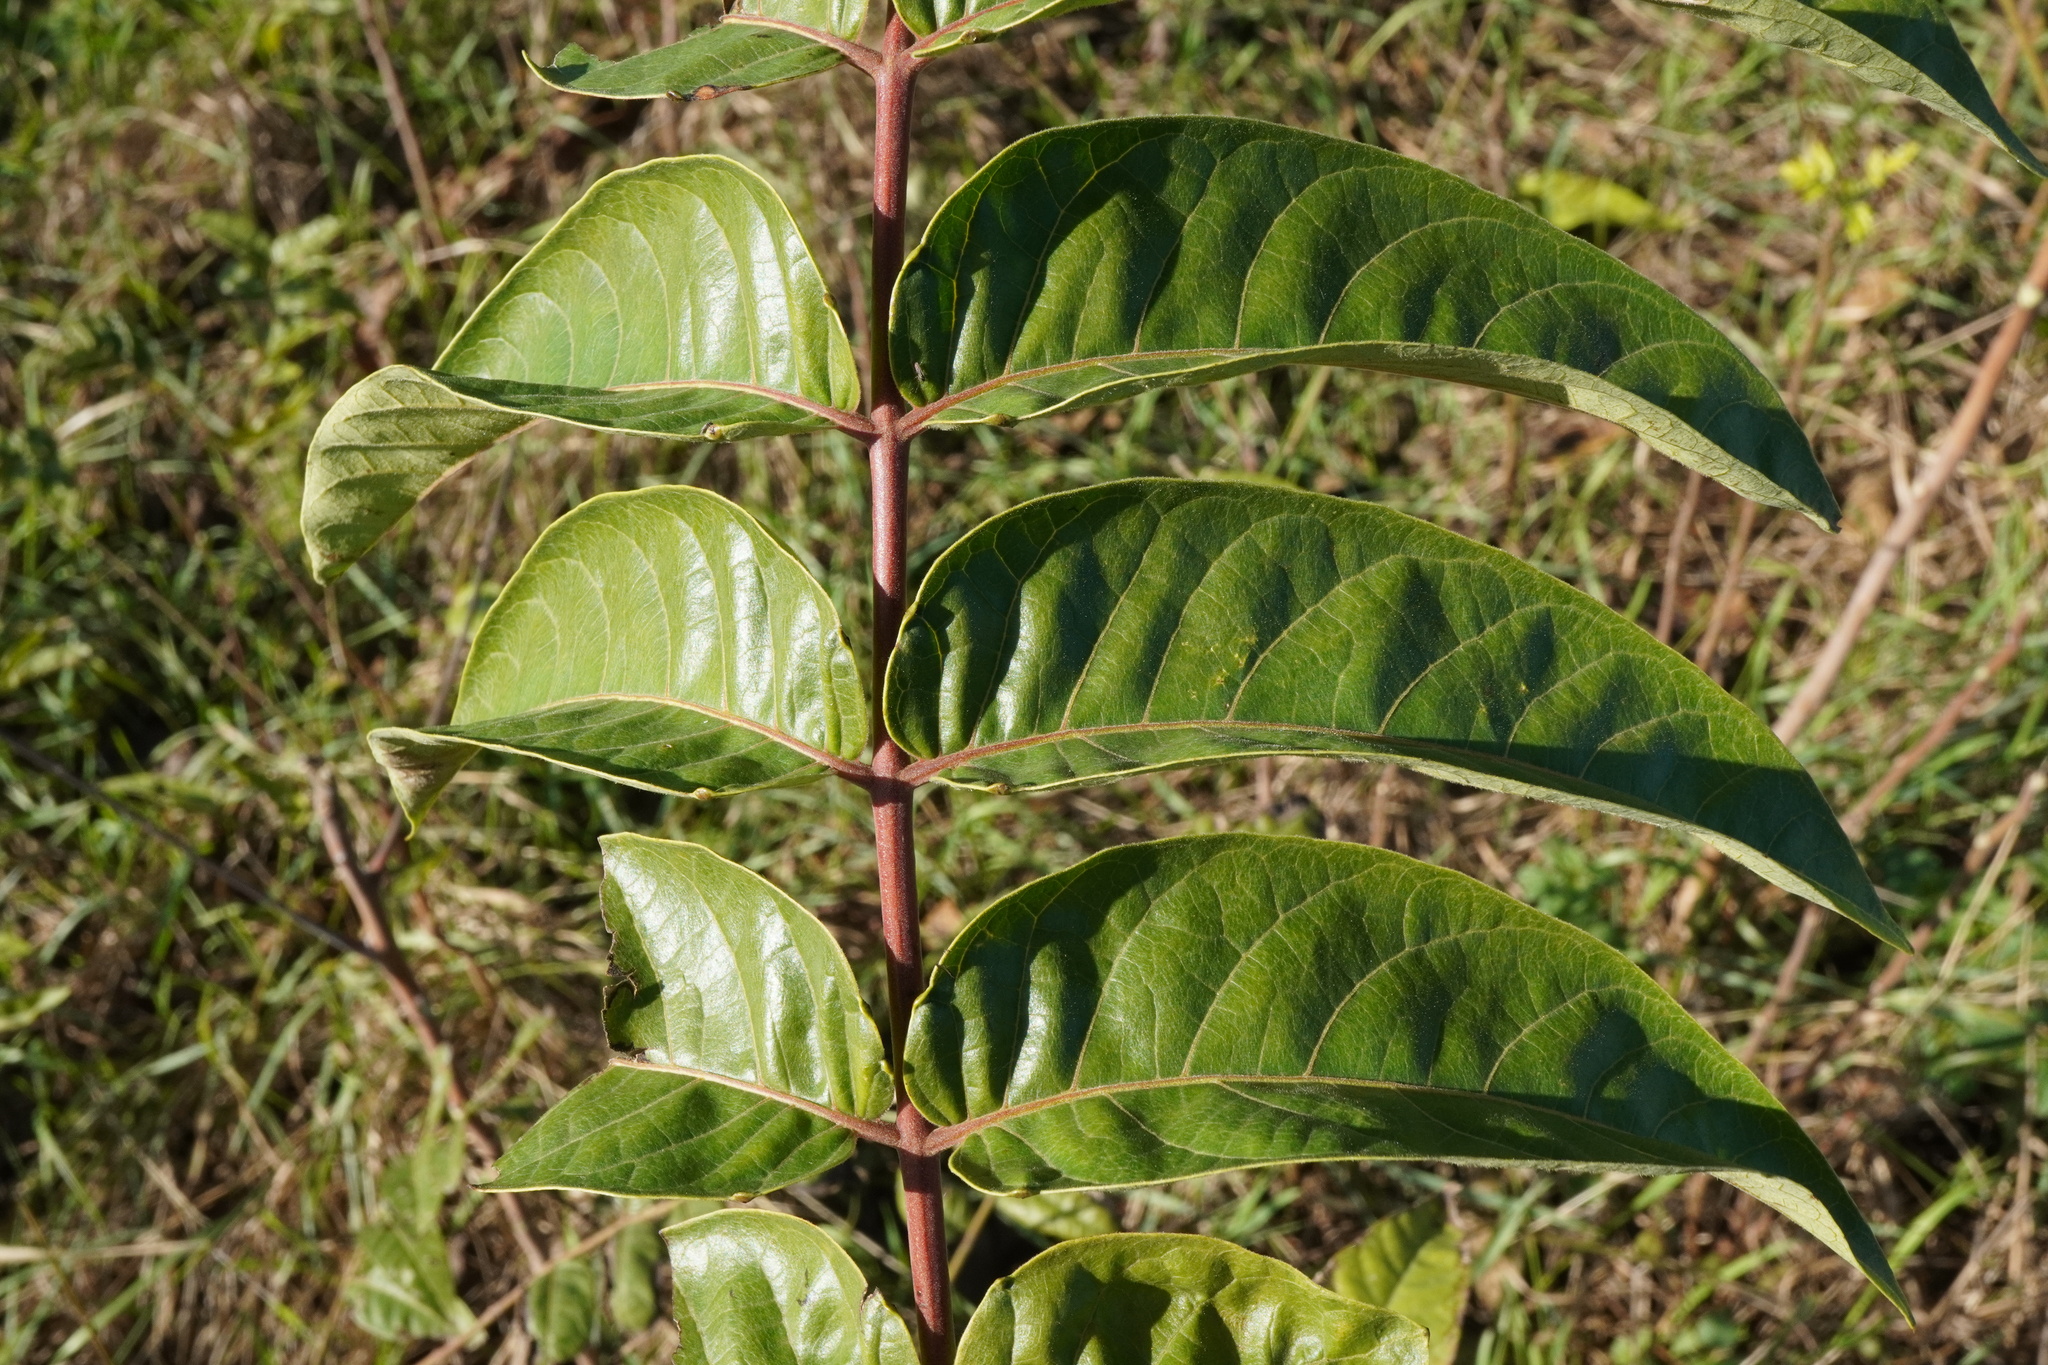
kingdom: Plantae
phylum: Tracheophyta
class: Magnoliopsida
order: Sapindales
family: Simaroubaceae
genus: Ailanthus
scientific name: Ailanthus altissima
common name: Tree-of-heaven
